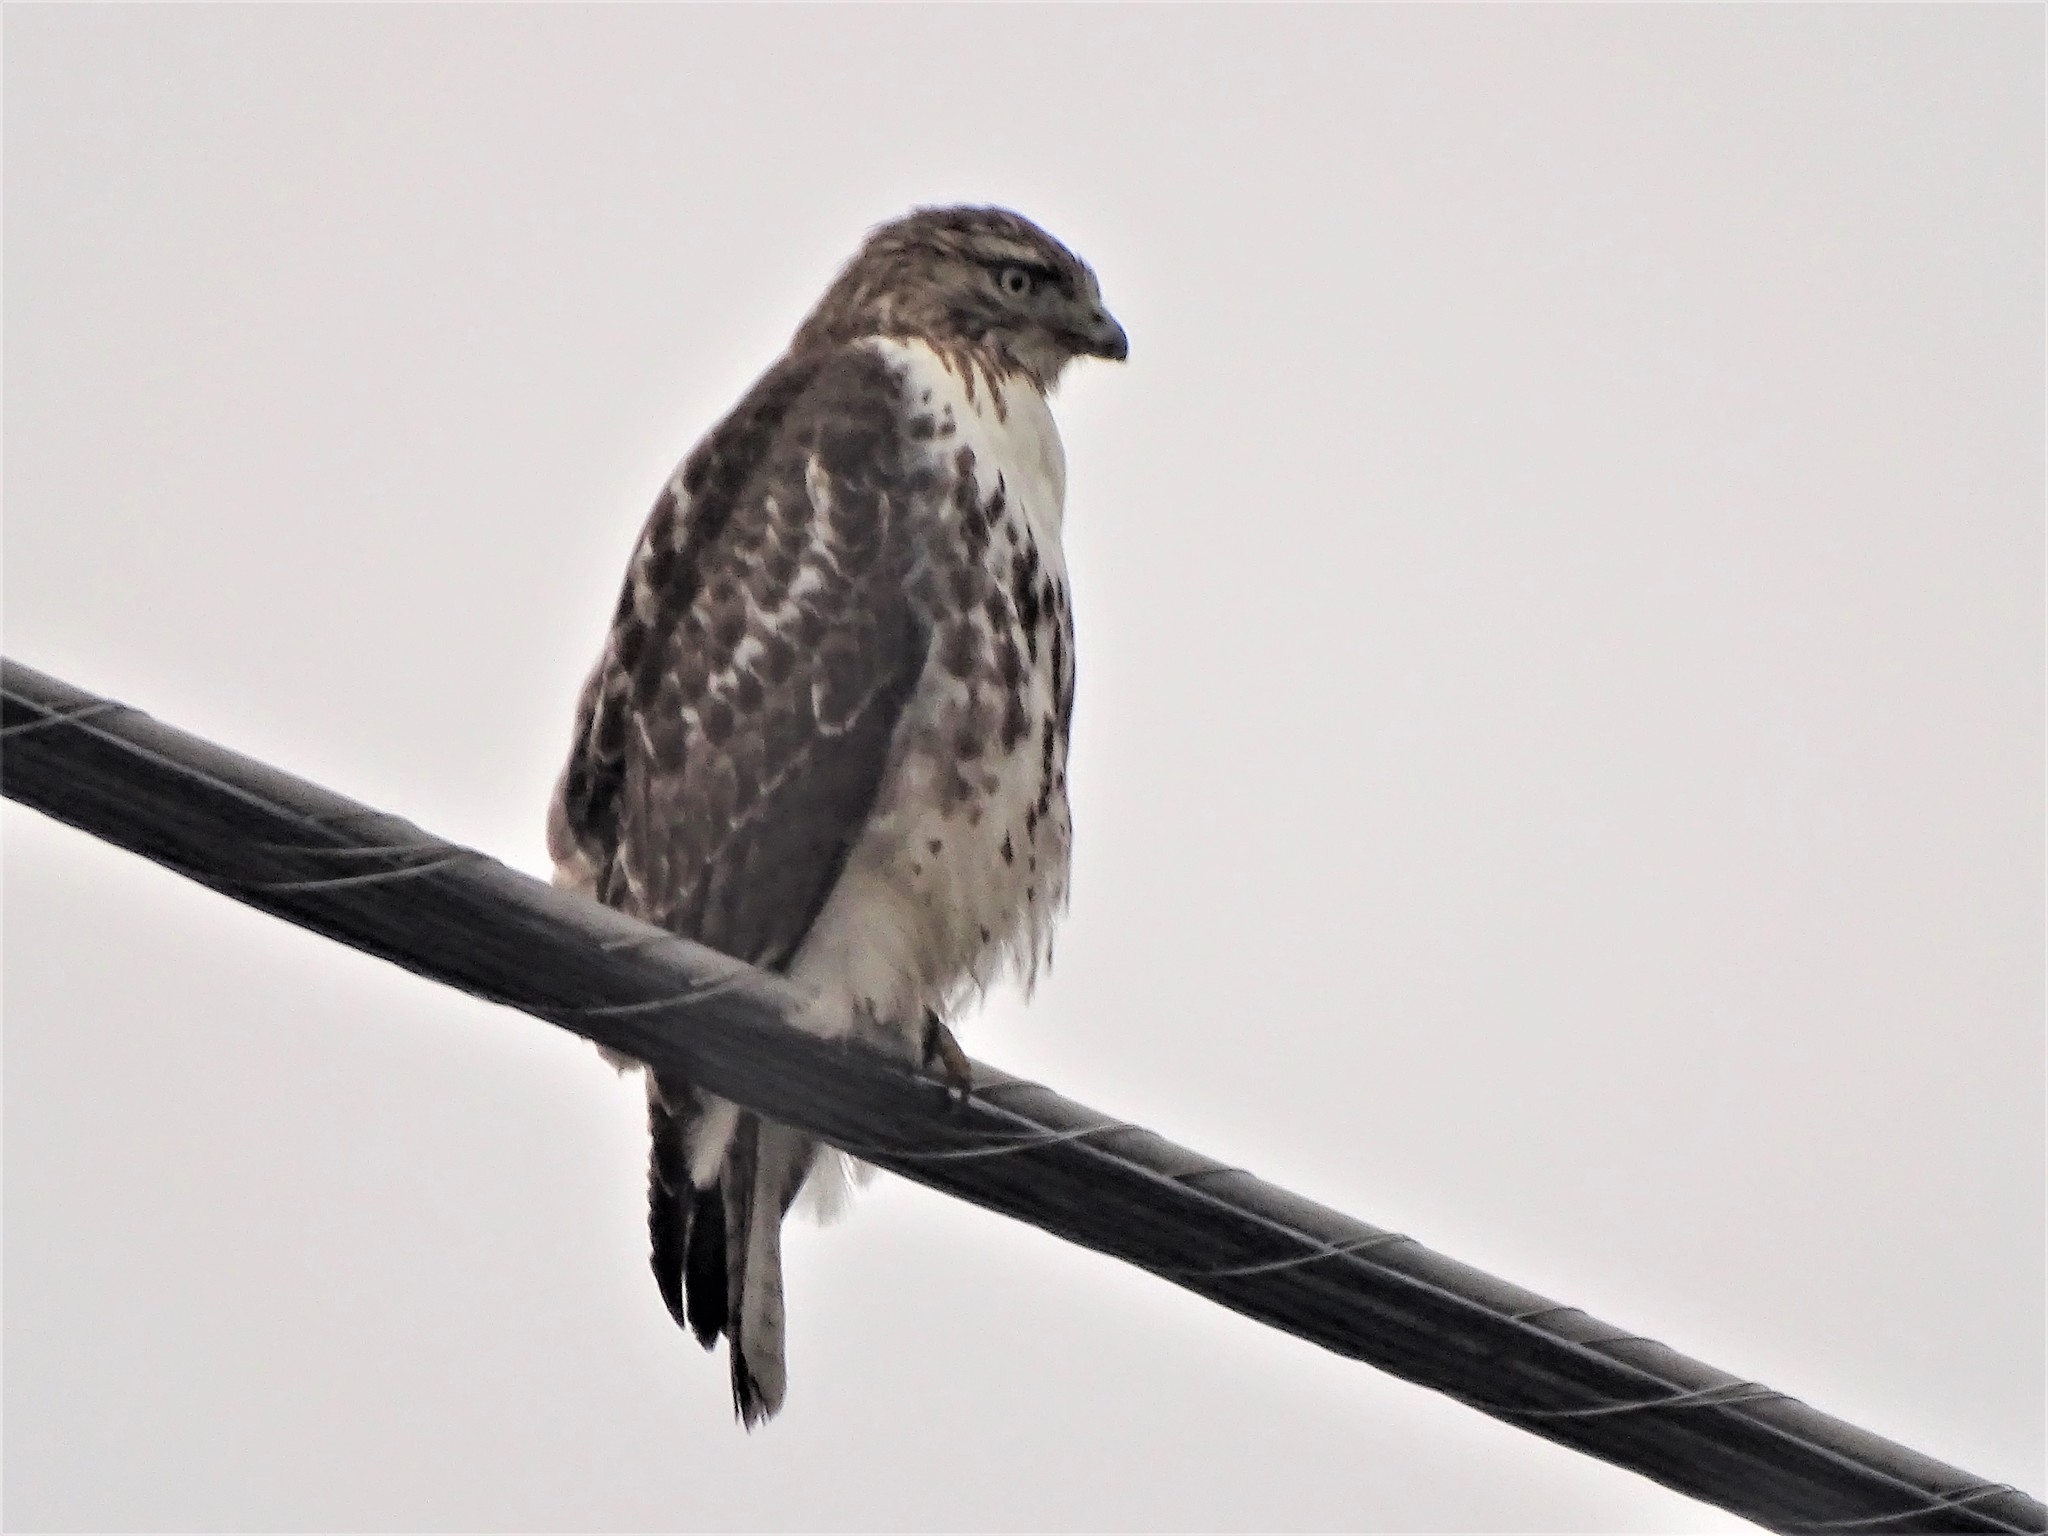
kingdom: Animalia
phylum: Chordata
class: Aves
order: Accipitriformes
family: Accipitridae
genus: Buteo
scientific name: Buteo jamaicensis
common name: Red-tailed hawk
